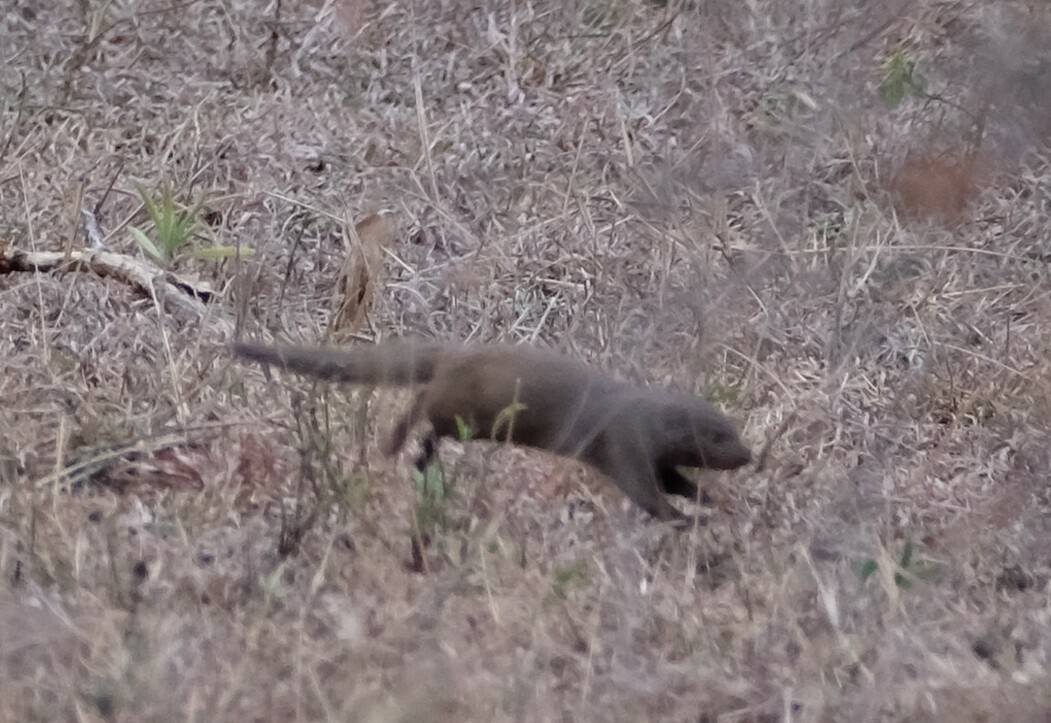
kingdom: Animalia
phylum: Chordata
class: Mammalia
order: Carnivora
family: Herpestidae
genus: Helogale
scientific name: Helogale parvula
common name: Common dwarf mongoose
